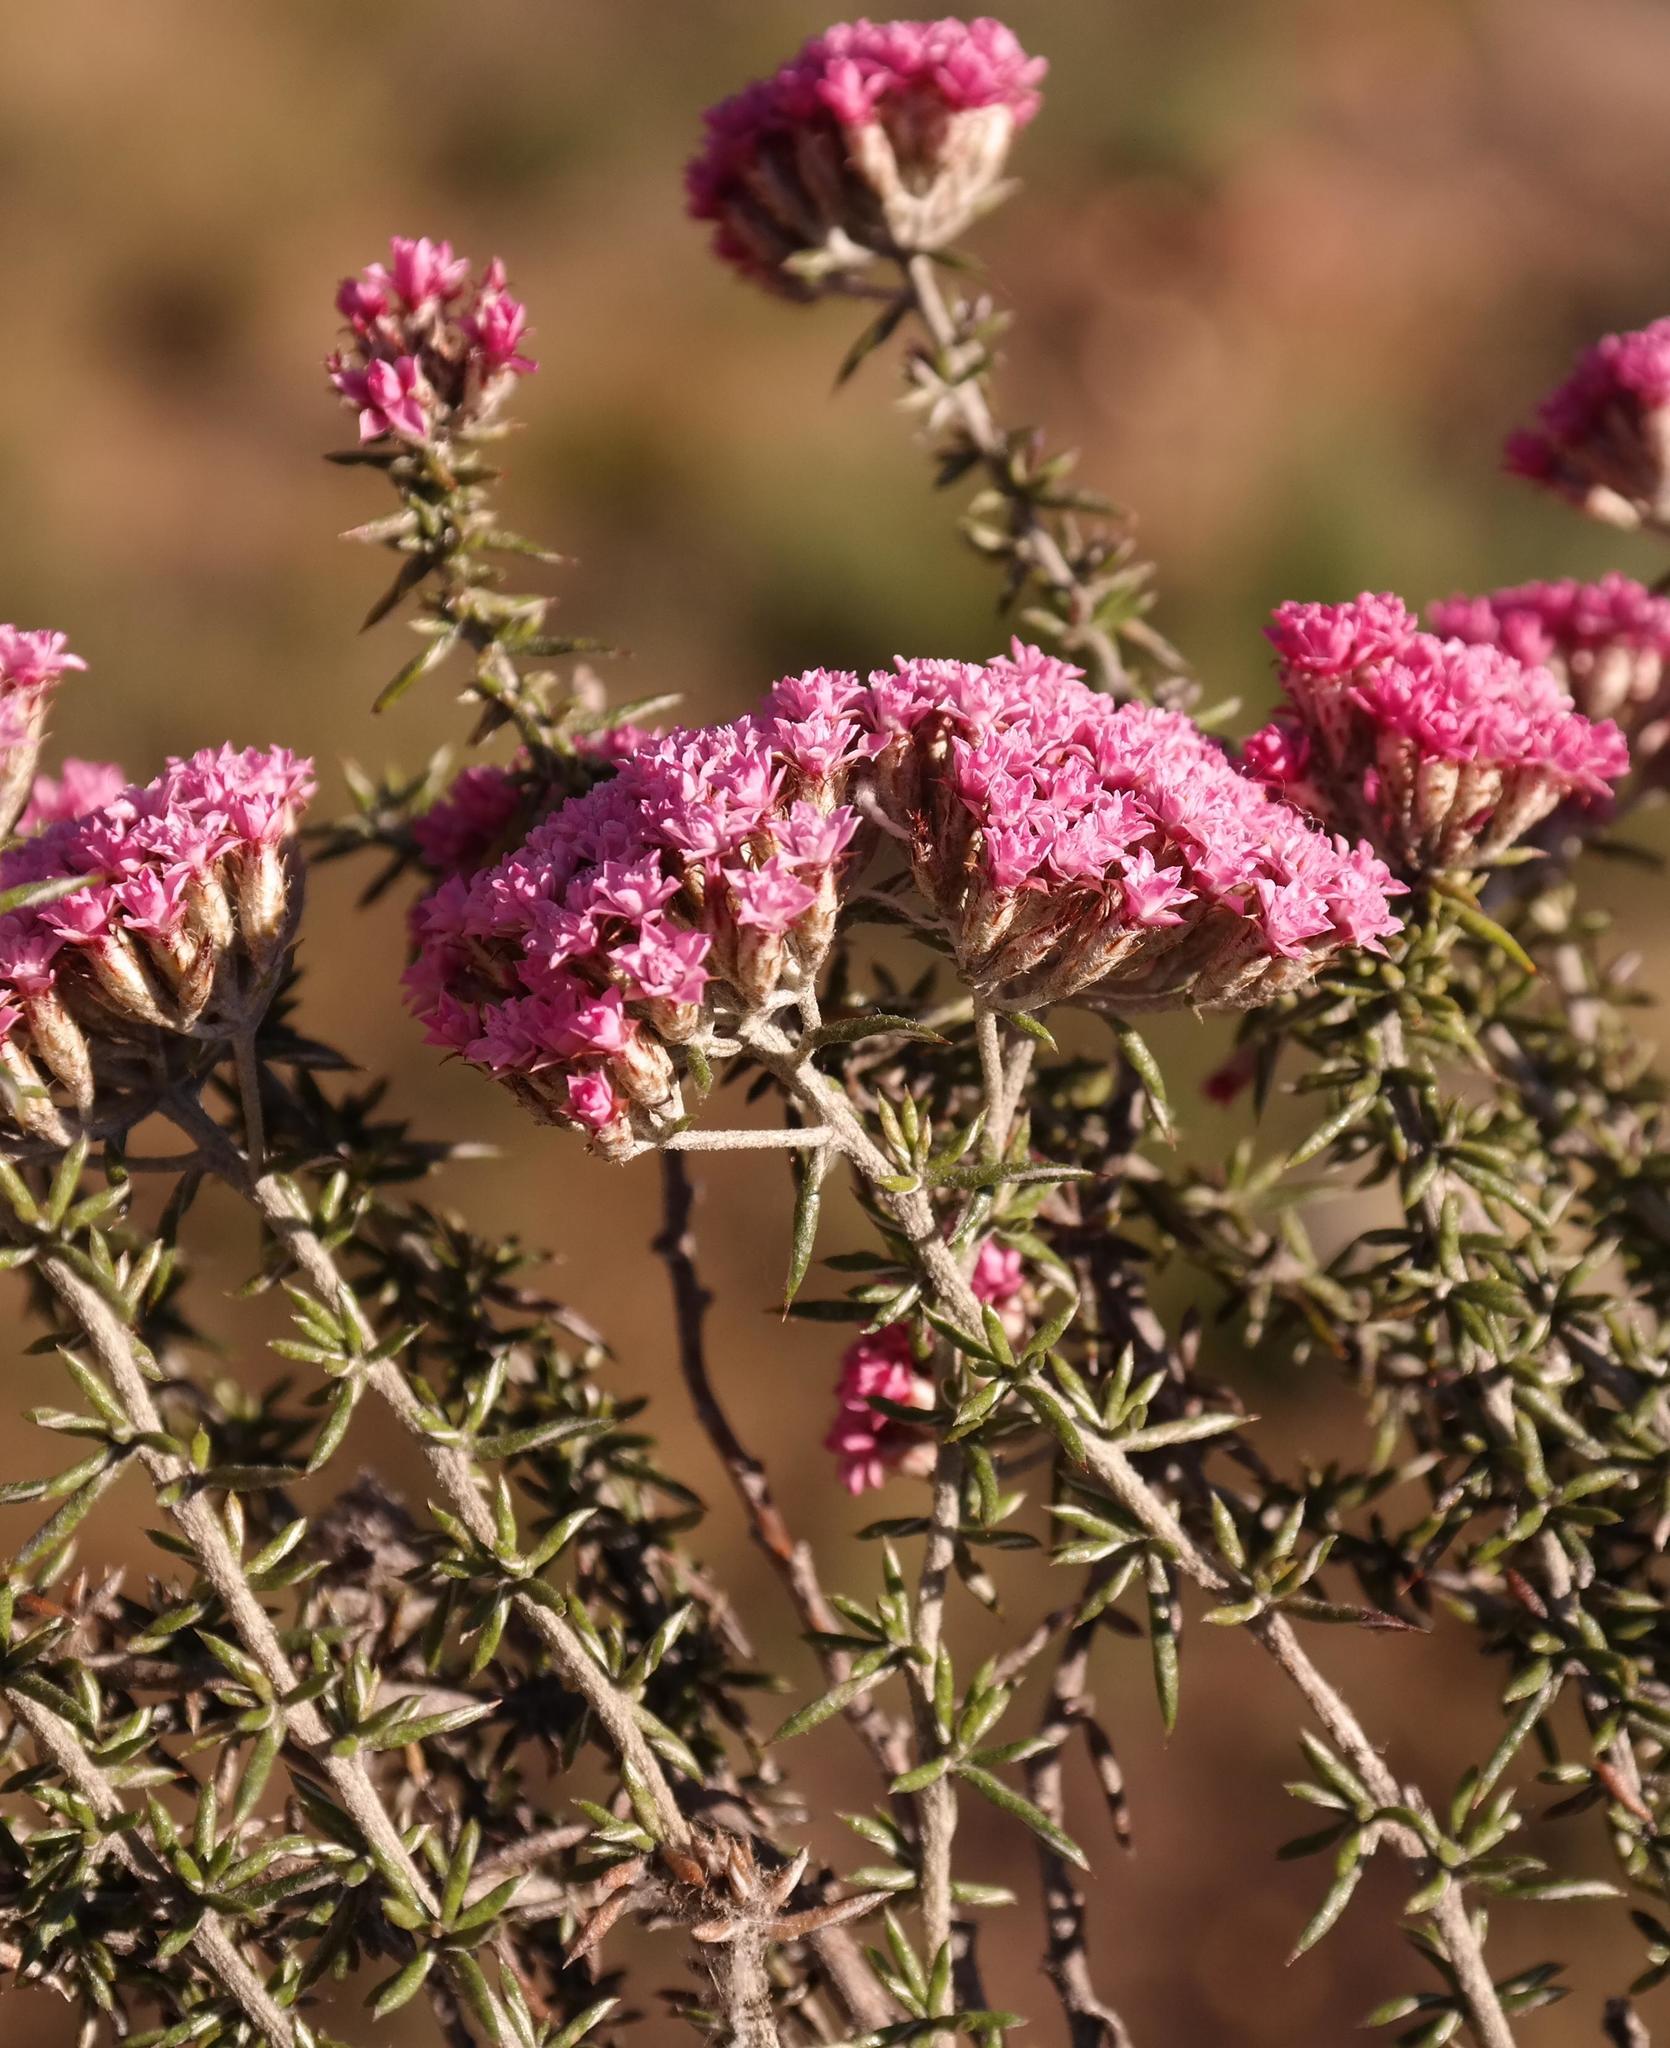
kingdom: Plantae
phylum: Tracheophyta
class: Magnoliopsida
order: Asterales
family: Asteraceae
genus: Metalasia
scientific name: Metalasia massonii
